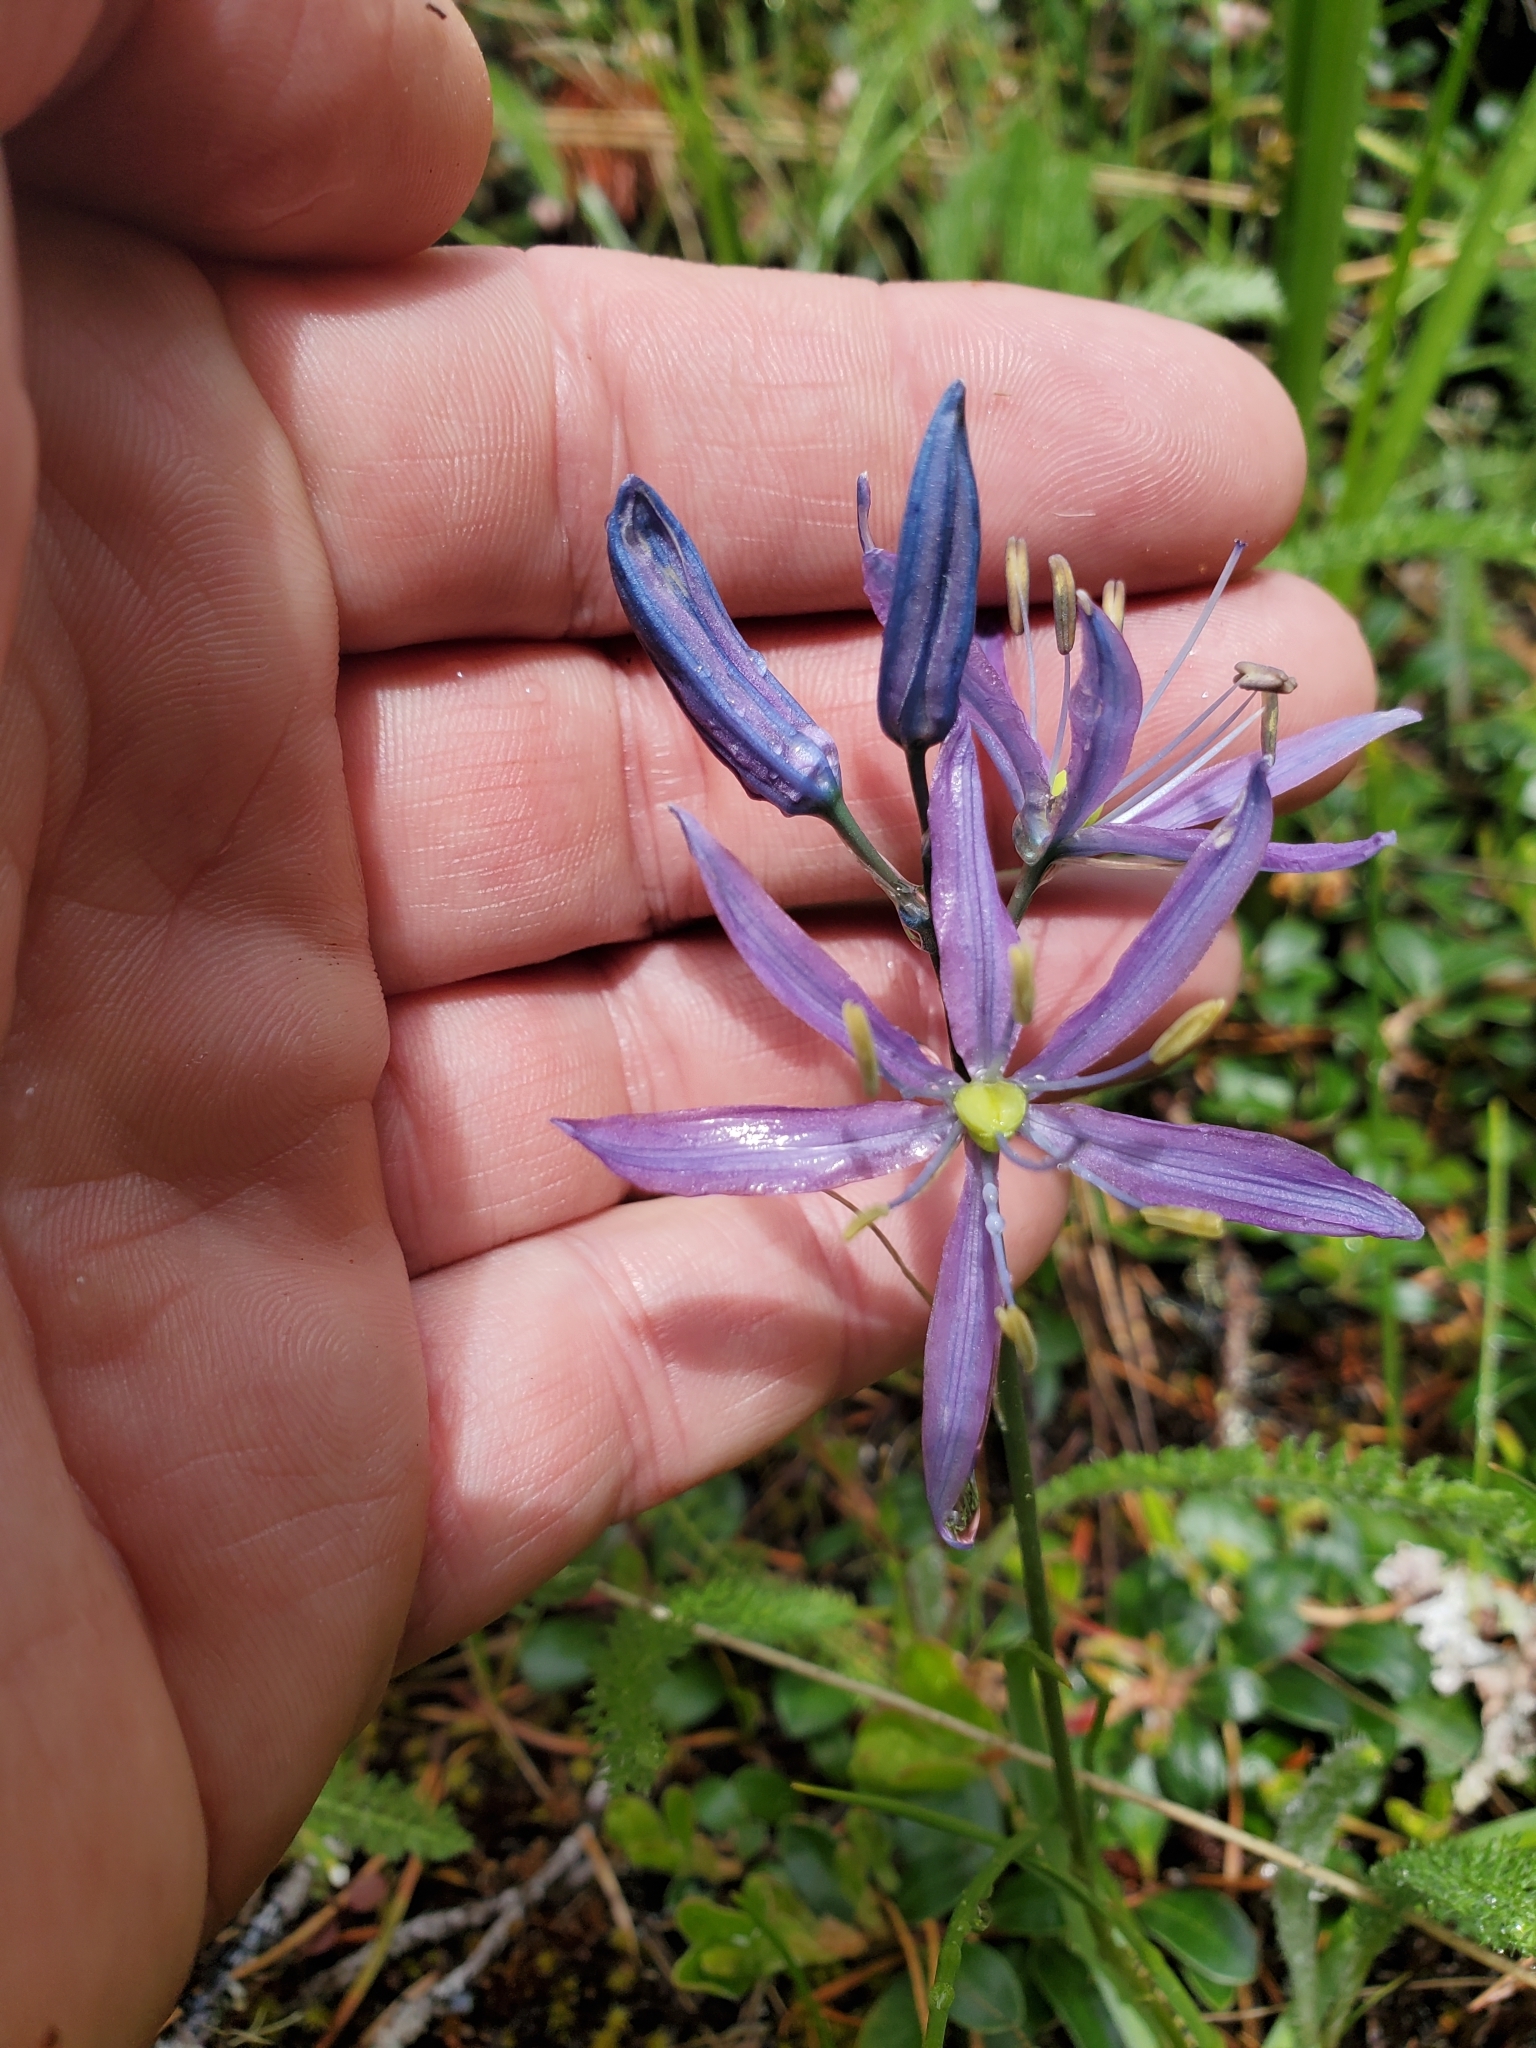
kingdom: Plantae
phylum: Tracheophyta
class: Liliopsida
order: Asparagales
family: Asparagaceae
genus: Camassia
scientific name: Camassia quamash
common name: Common camas
